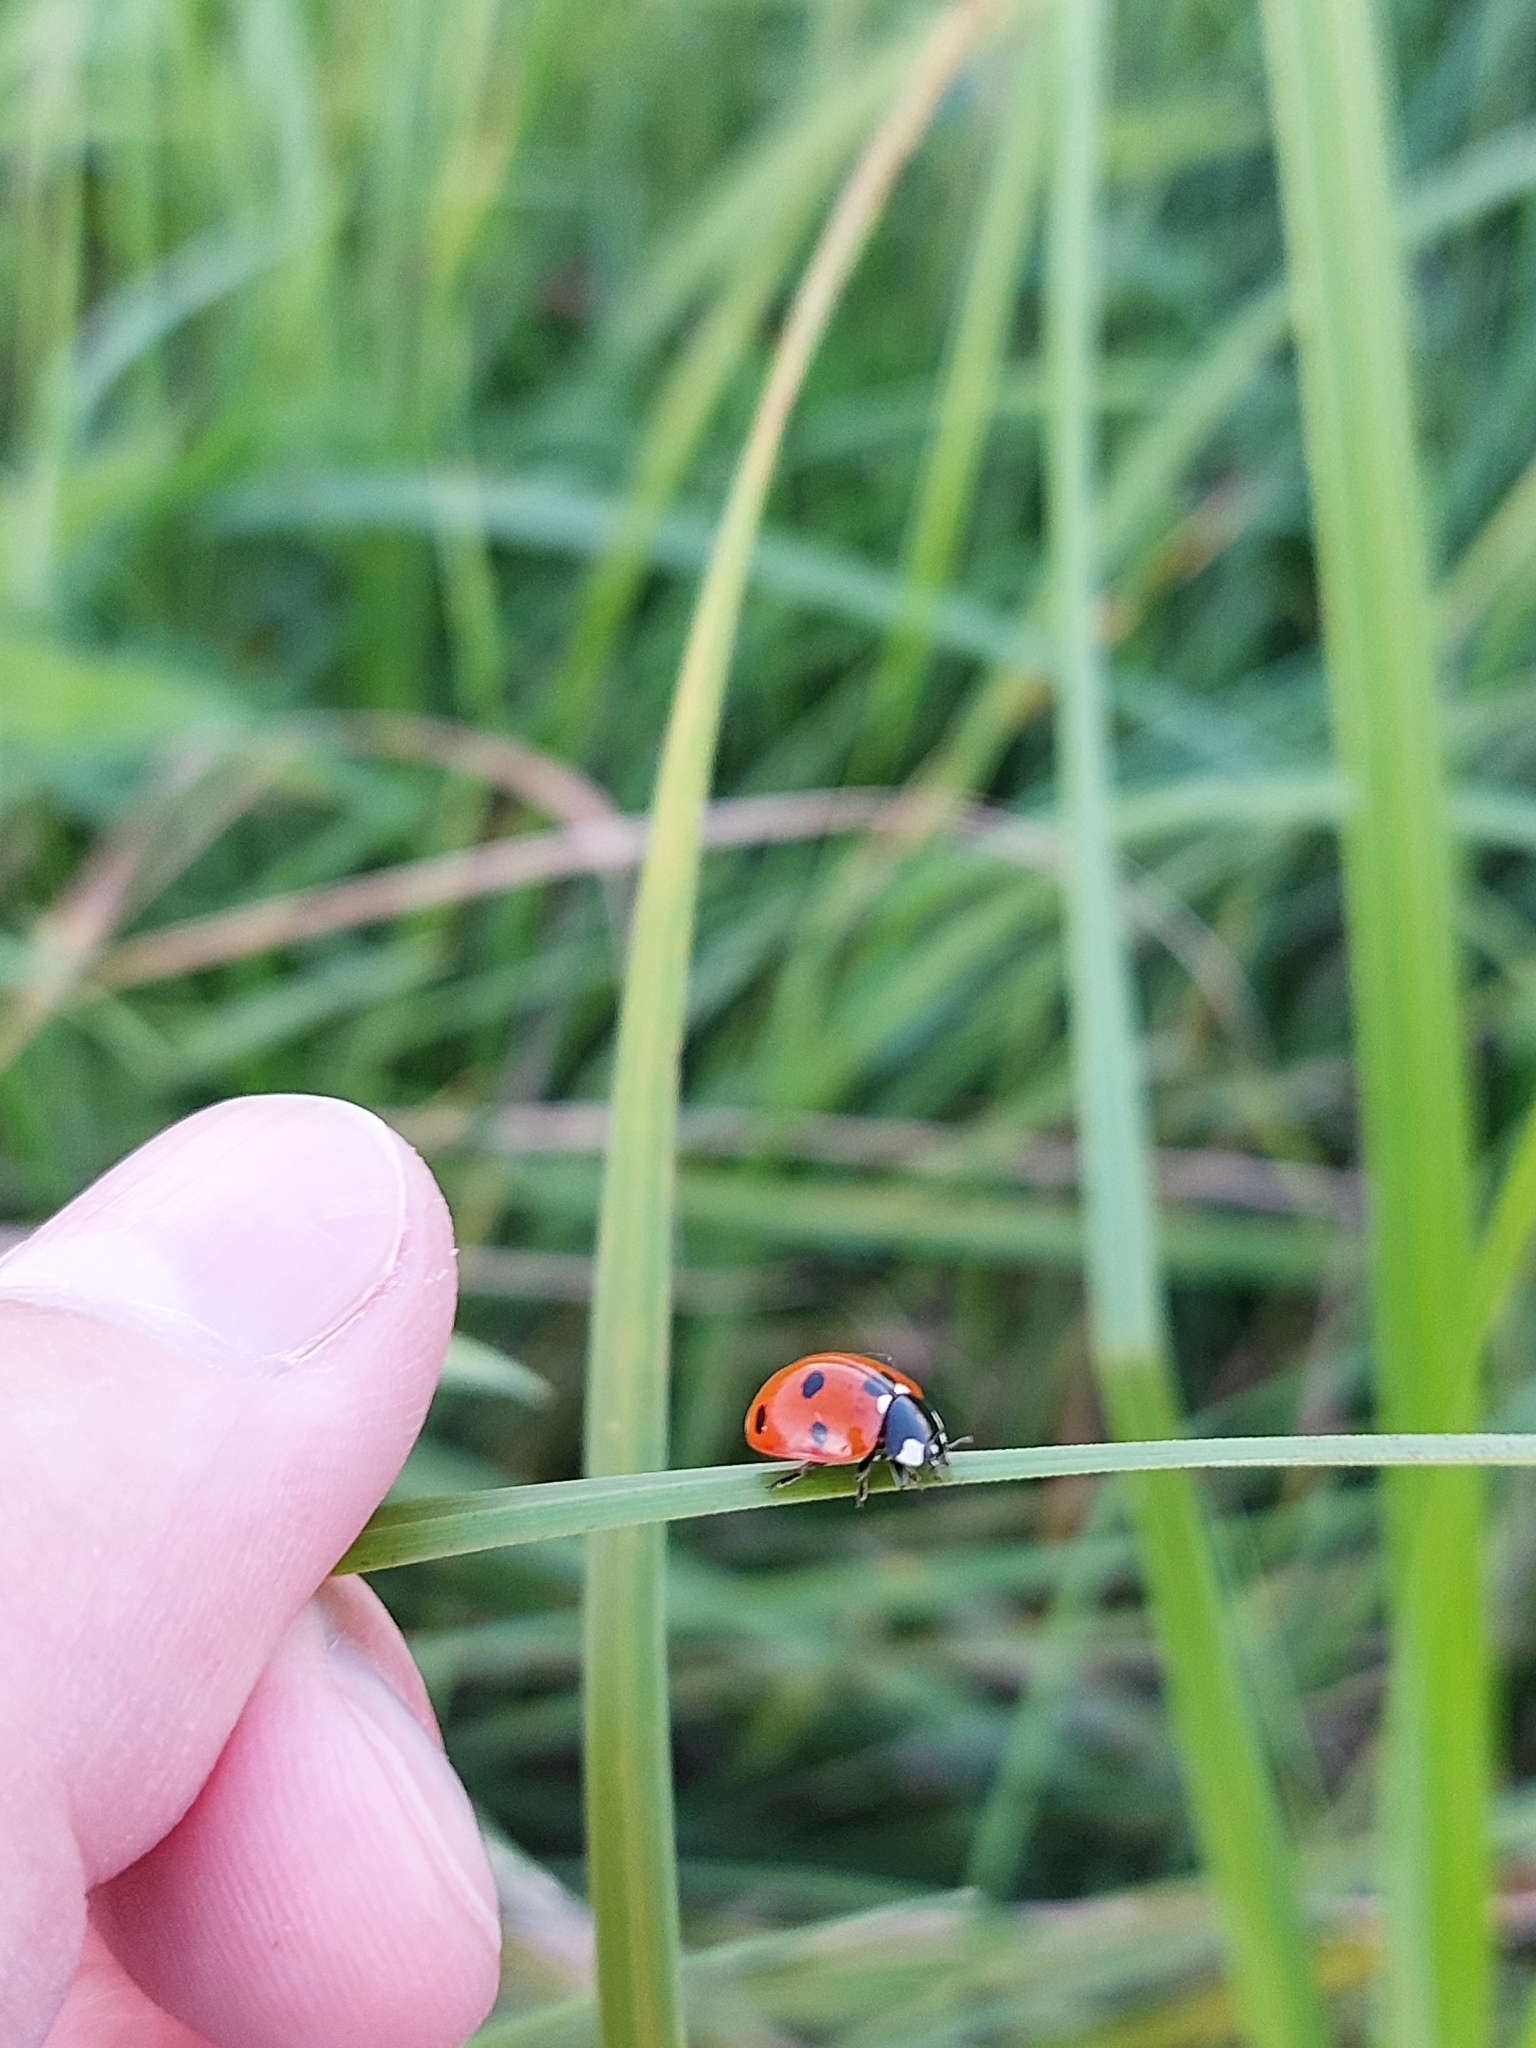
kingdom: Animalia
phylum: Arthropoda
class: Insecta
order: Coleoptera
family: Coccinellidae
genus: Coccinella
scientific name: Coccinella septempunctata
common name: Sevenspotted lady beetle
